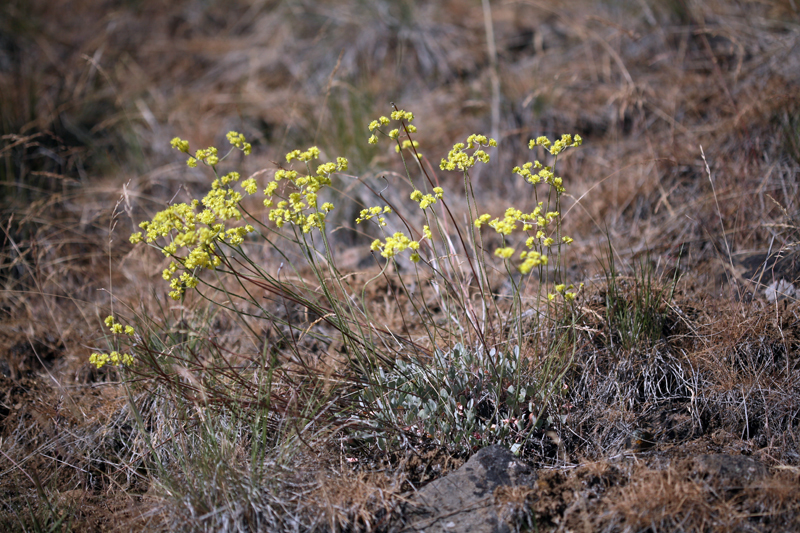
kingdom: Plantae
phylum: Tracheophyta
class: Magnoliopsida
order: Caryophyllales
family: Polygonaceae
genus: Eriogonum
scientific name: Eriogonum strictum
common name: Blue mountain buckwheat
